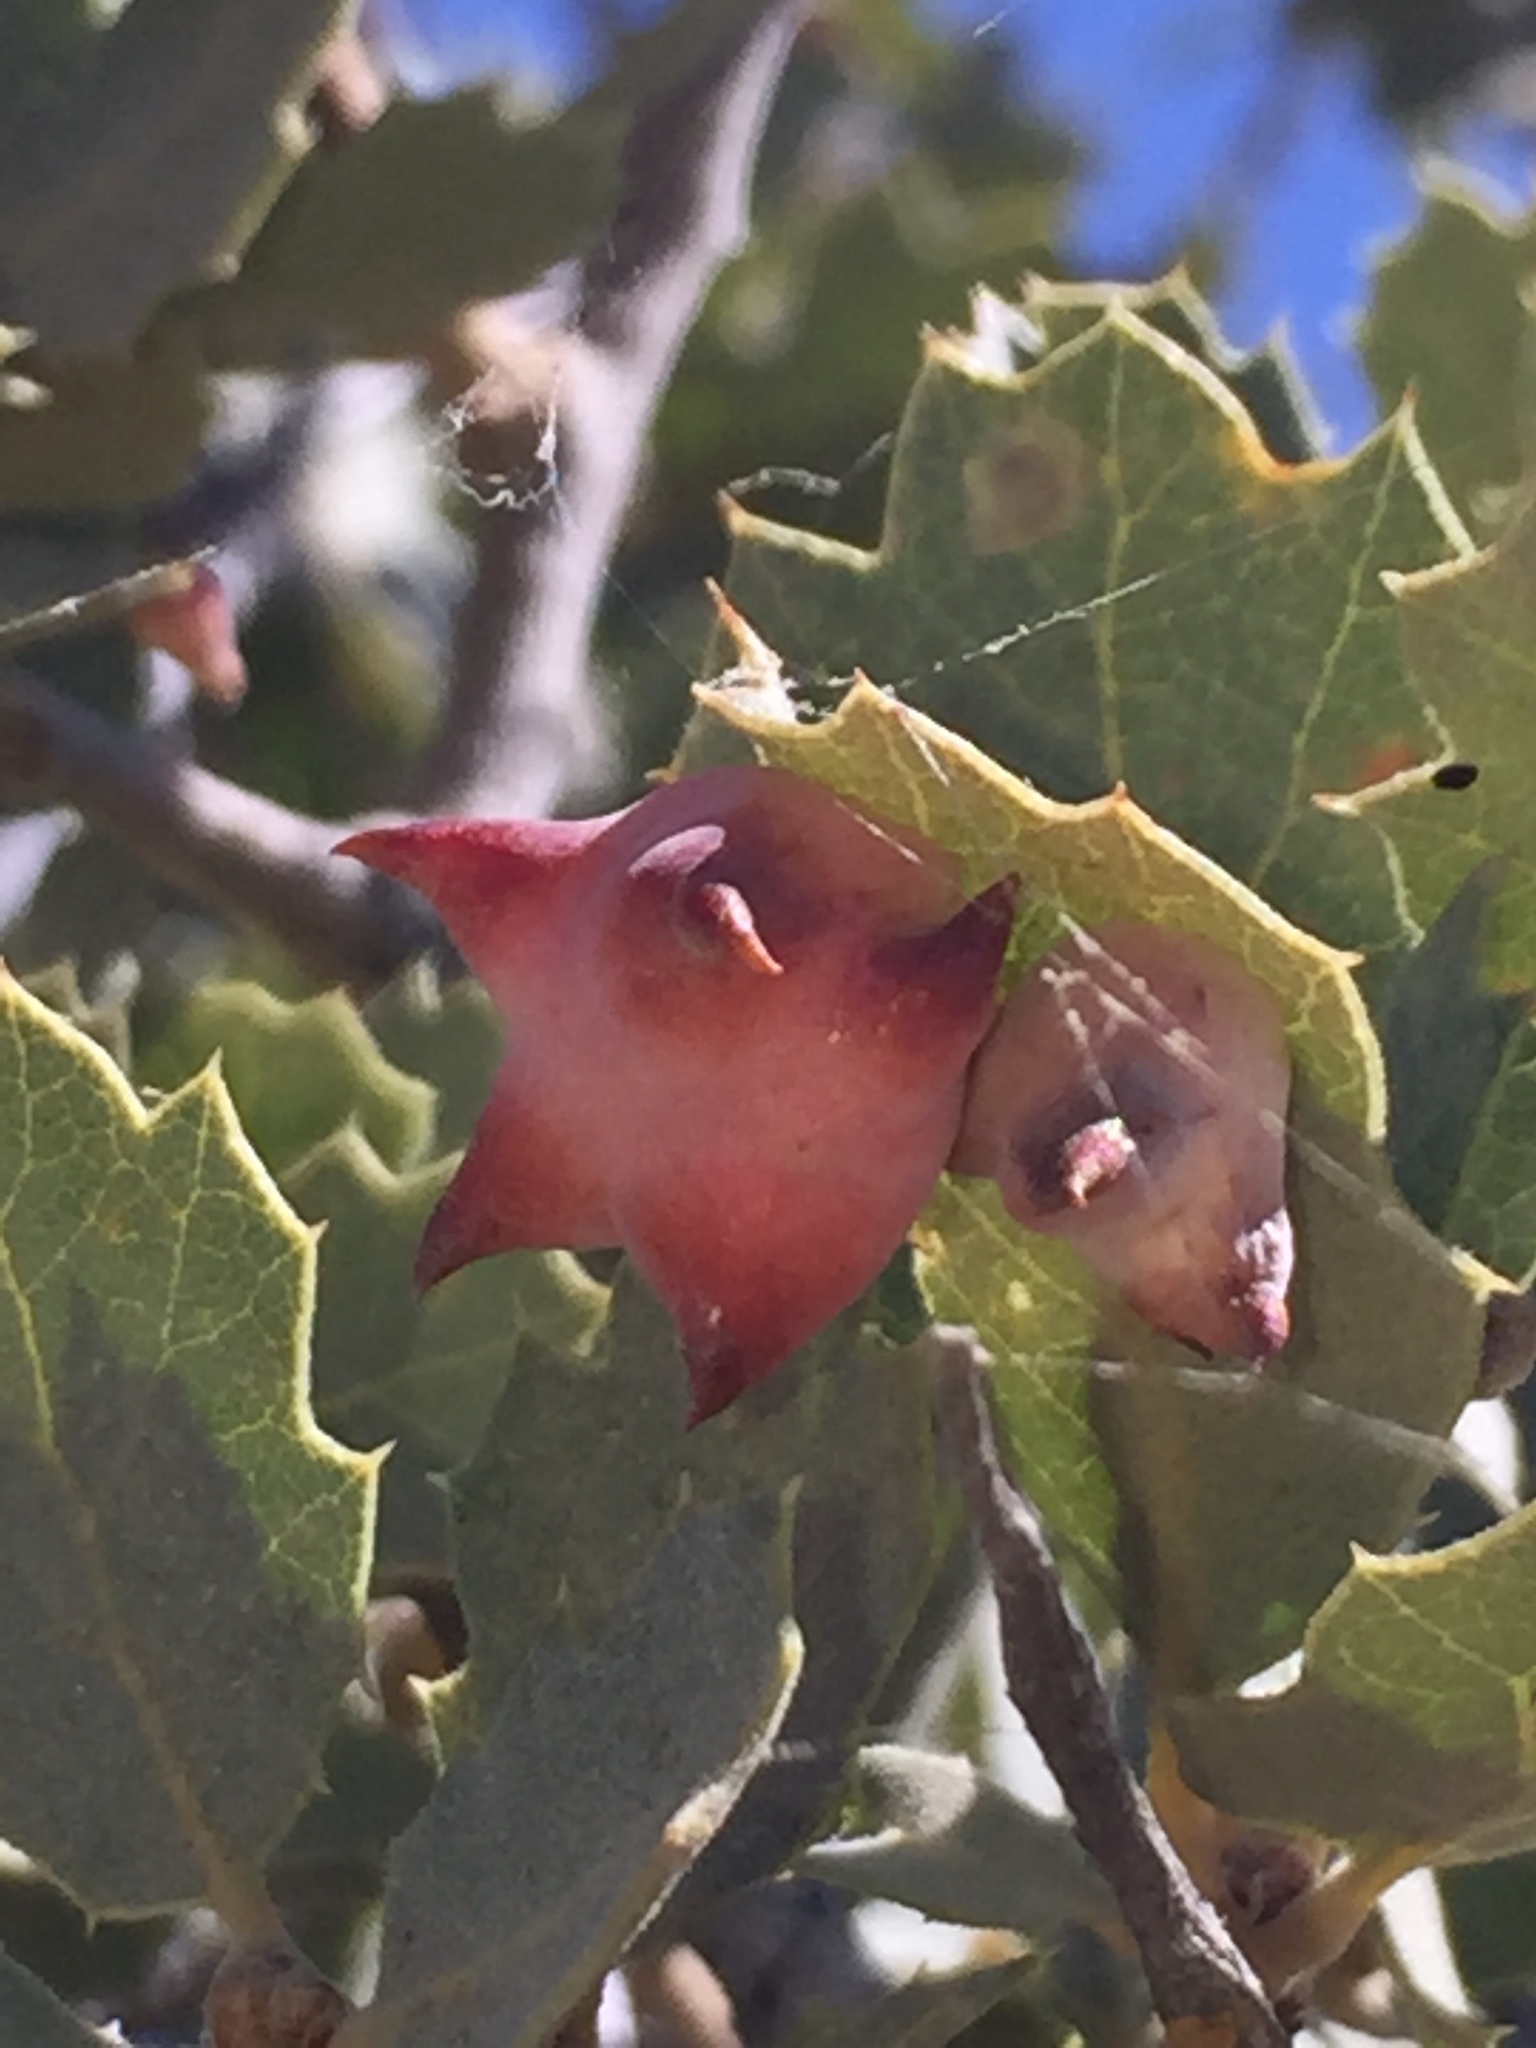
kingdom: Animalia
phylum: Arthropoda
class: Insecta
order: Hymenoptera
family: Cynipidae
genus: Cynips
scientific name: Cynips douglasi
